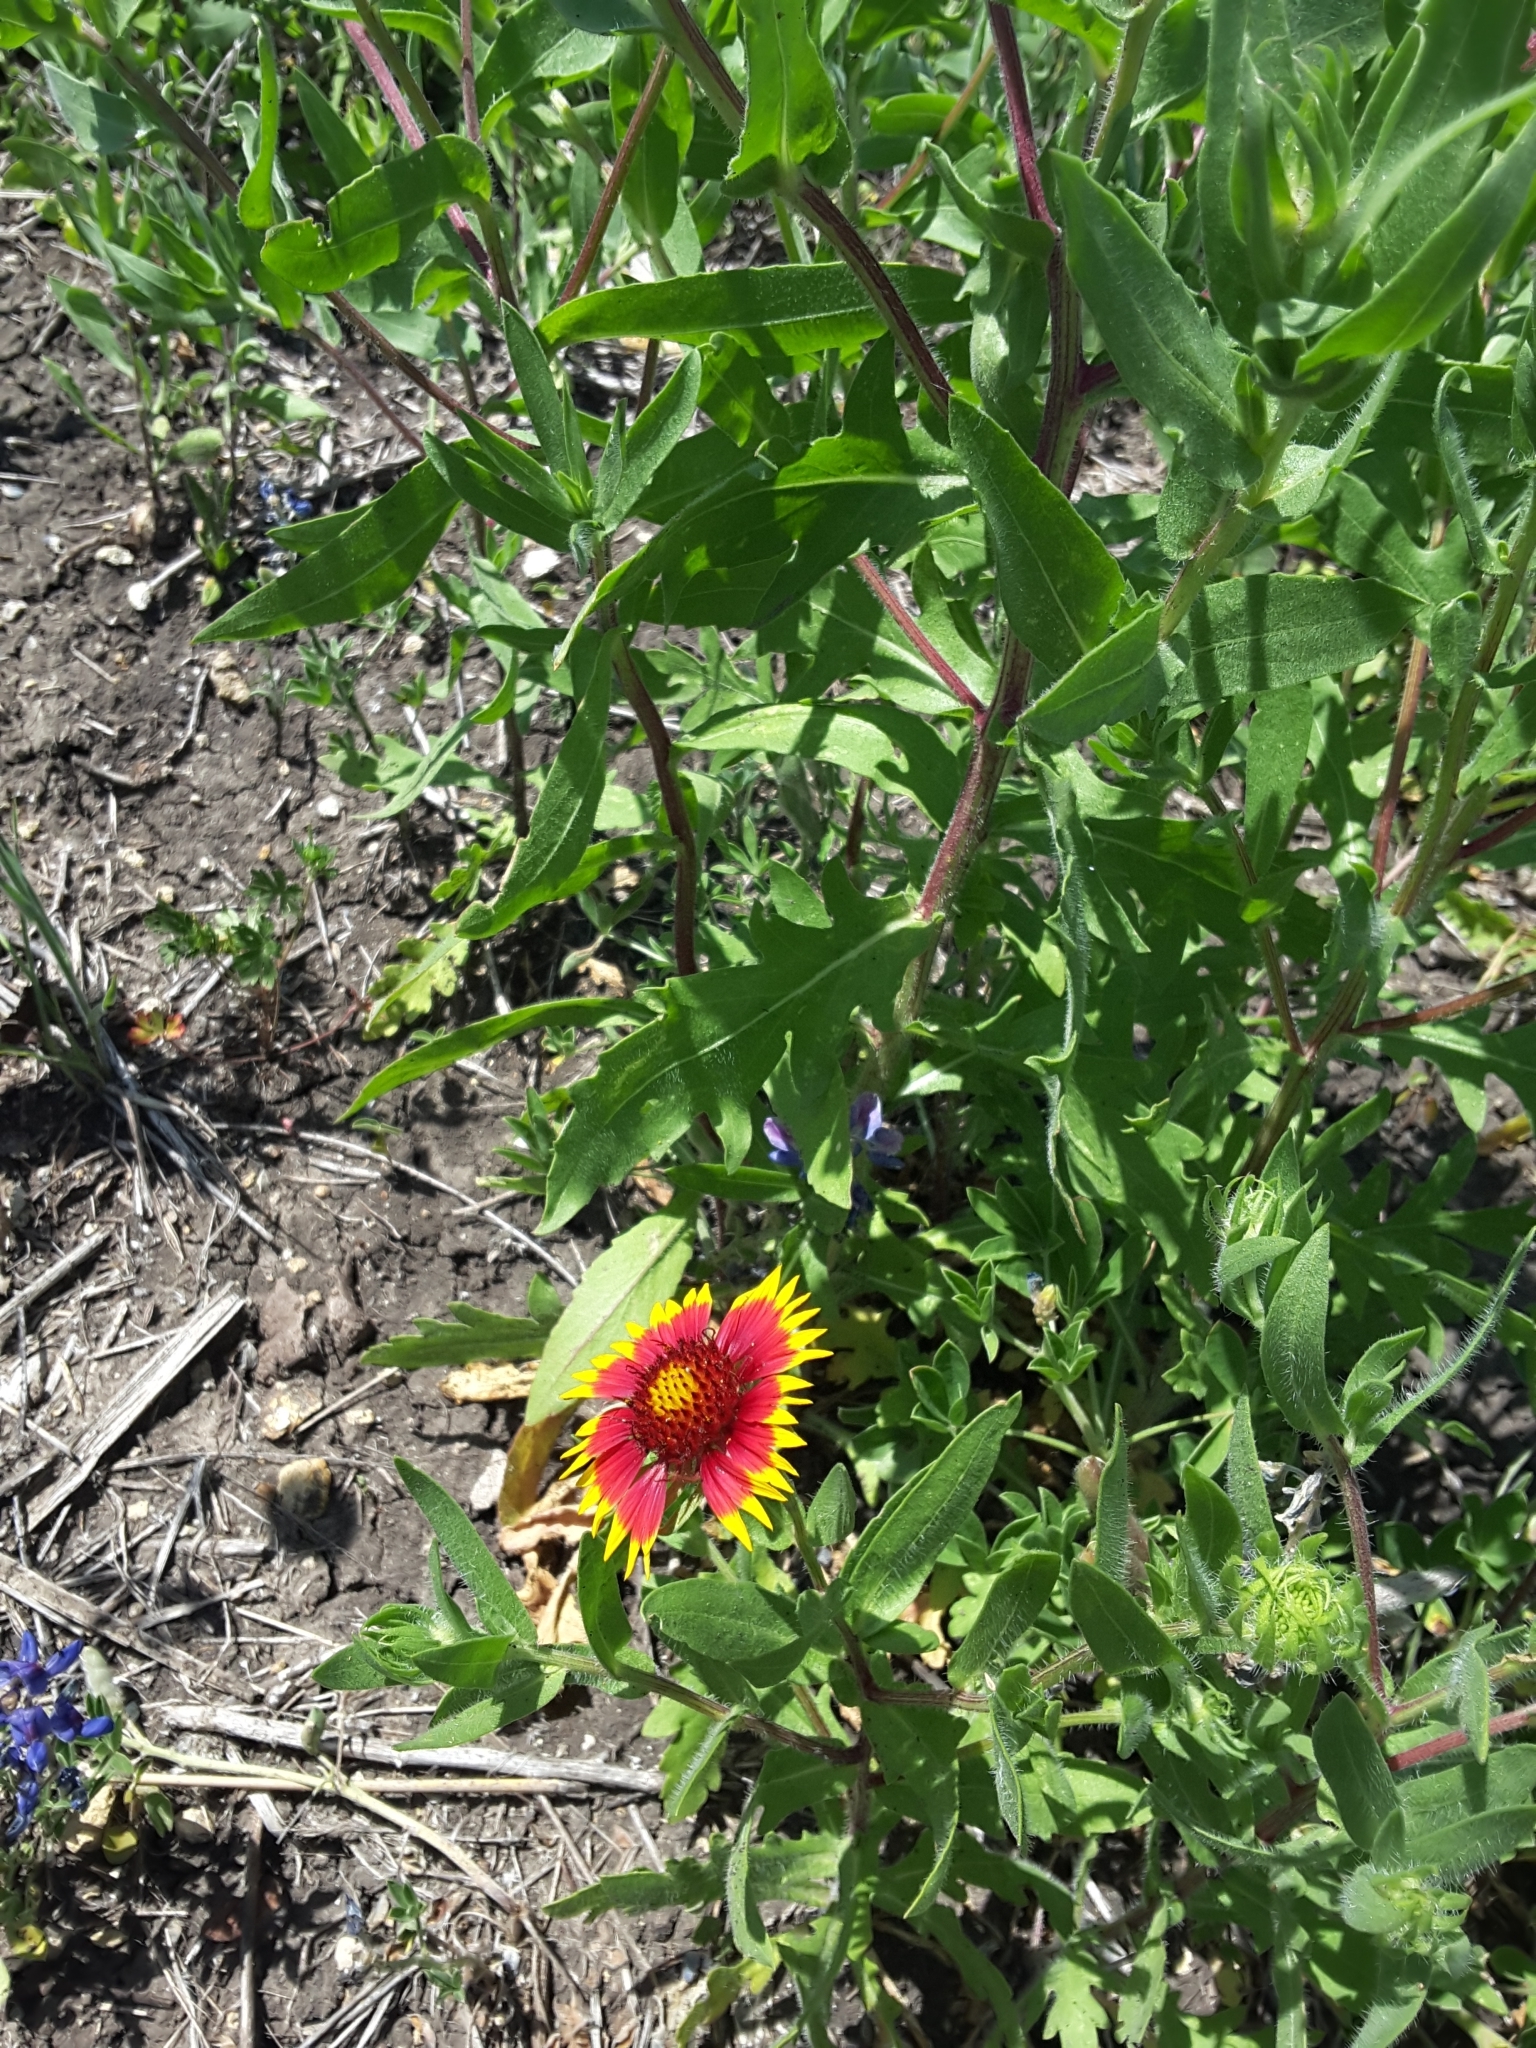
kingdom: Plantae
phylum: Tracheophyta
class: Magnoliopsida
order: Asterales
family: Asteraceae
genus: Gaillardia
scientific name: Gaillardia pulchella
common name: Firewheel
